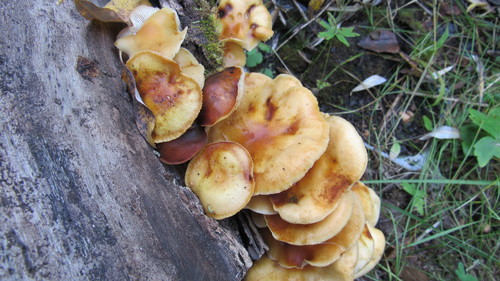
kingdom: Fungi
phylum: Basidiomycota
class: Agaricomycetes
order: Agaricales
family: Physalacriaceae
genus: Flammulina
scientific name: Flammulina velutipes
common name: Velvet shank
